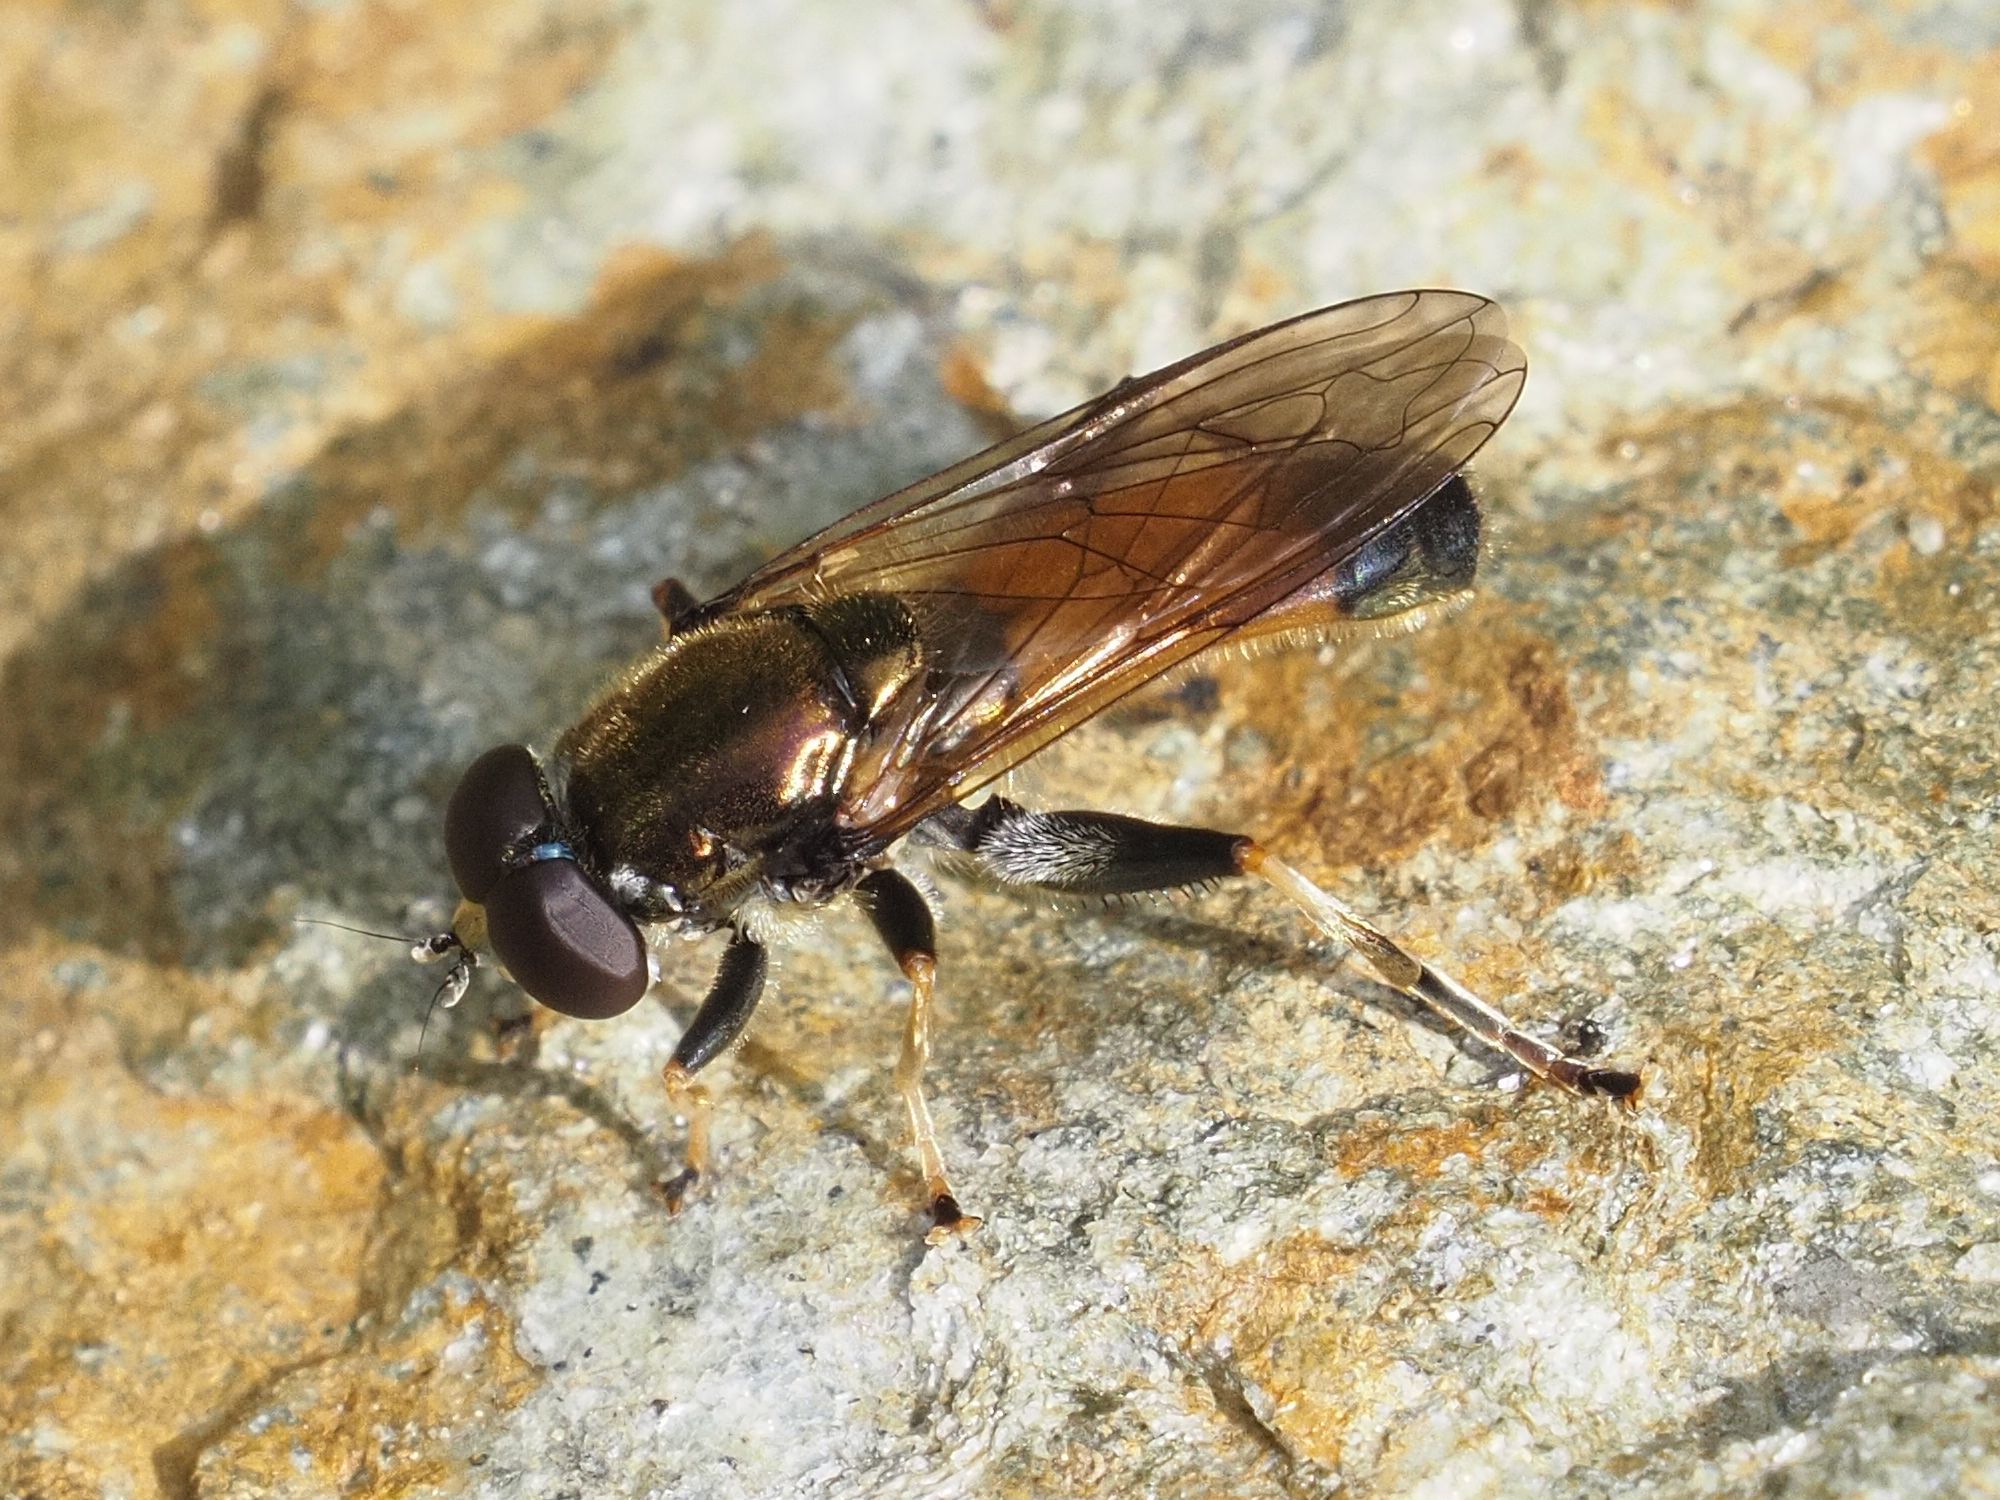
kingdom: Animalia
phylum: Arthropoda
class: Insecta
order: Diptera
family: Syrphidae
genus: Xylota
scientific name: Xylota segnis
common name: Brown-toed forest fly
